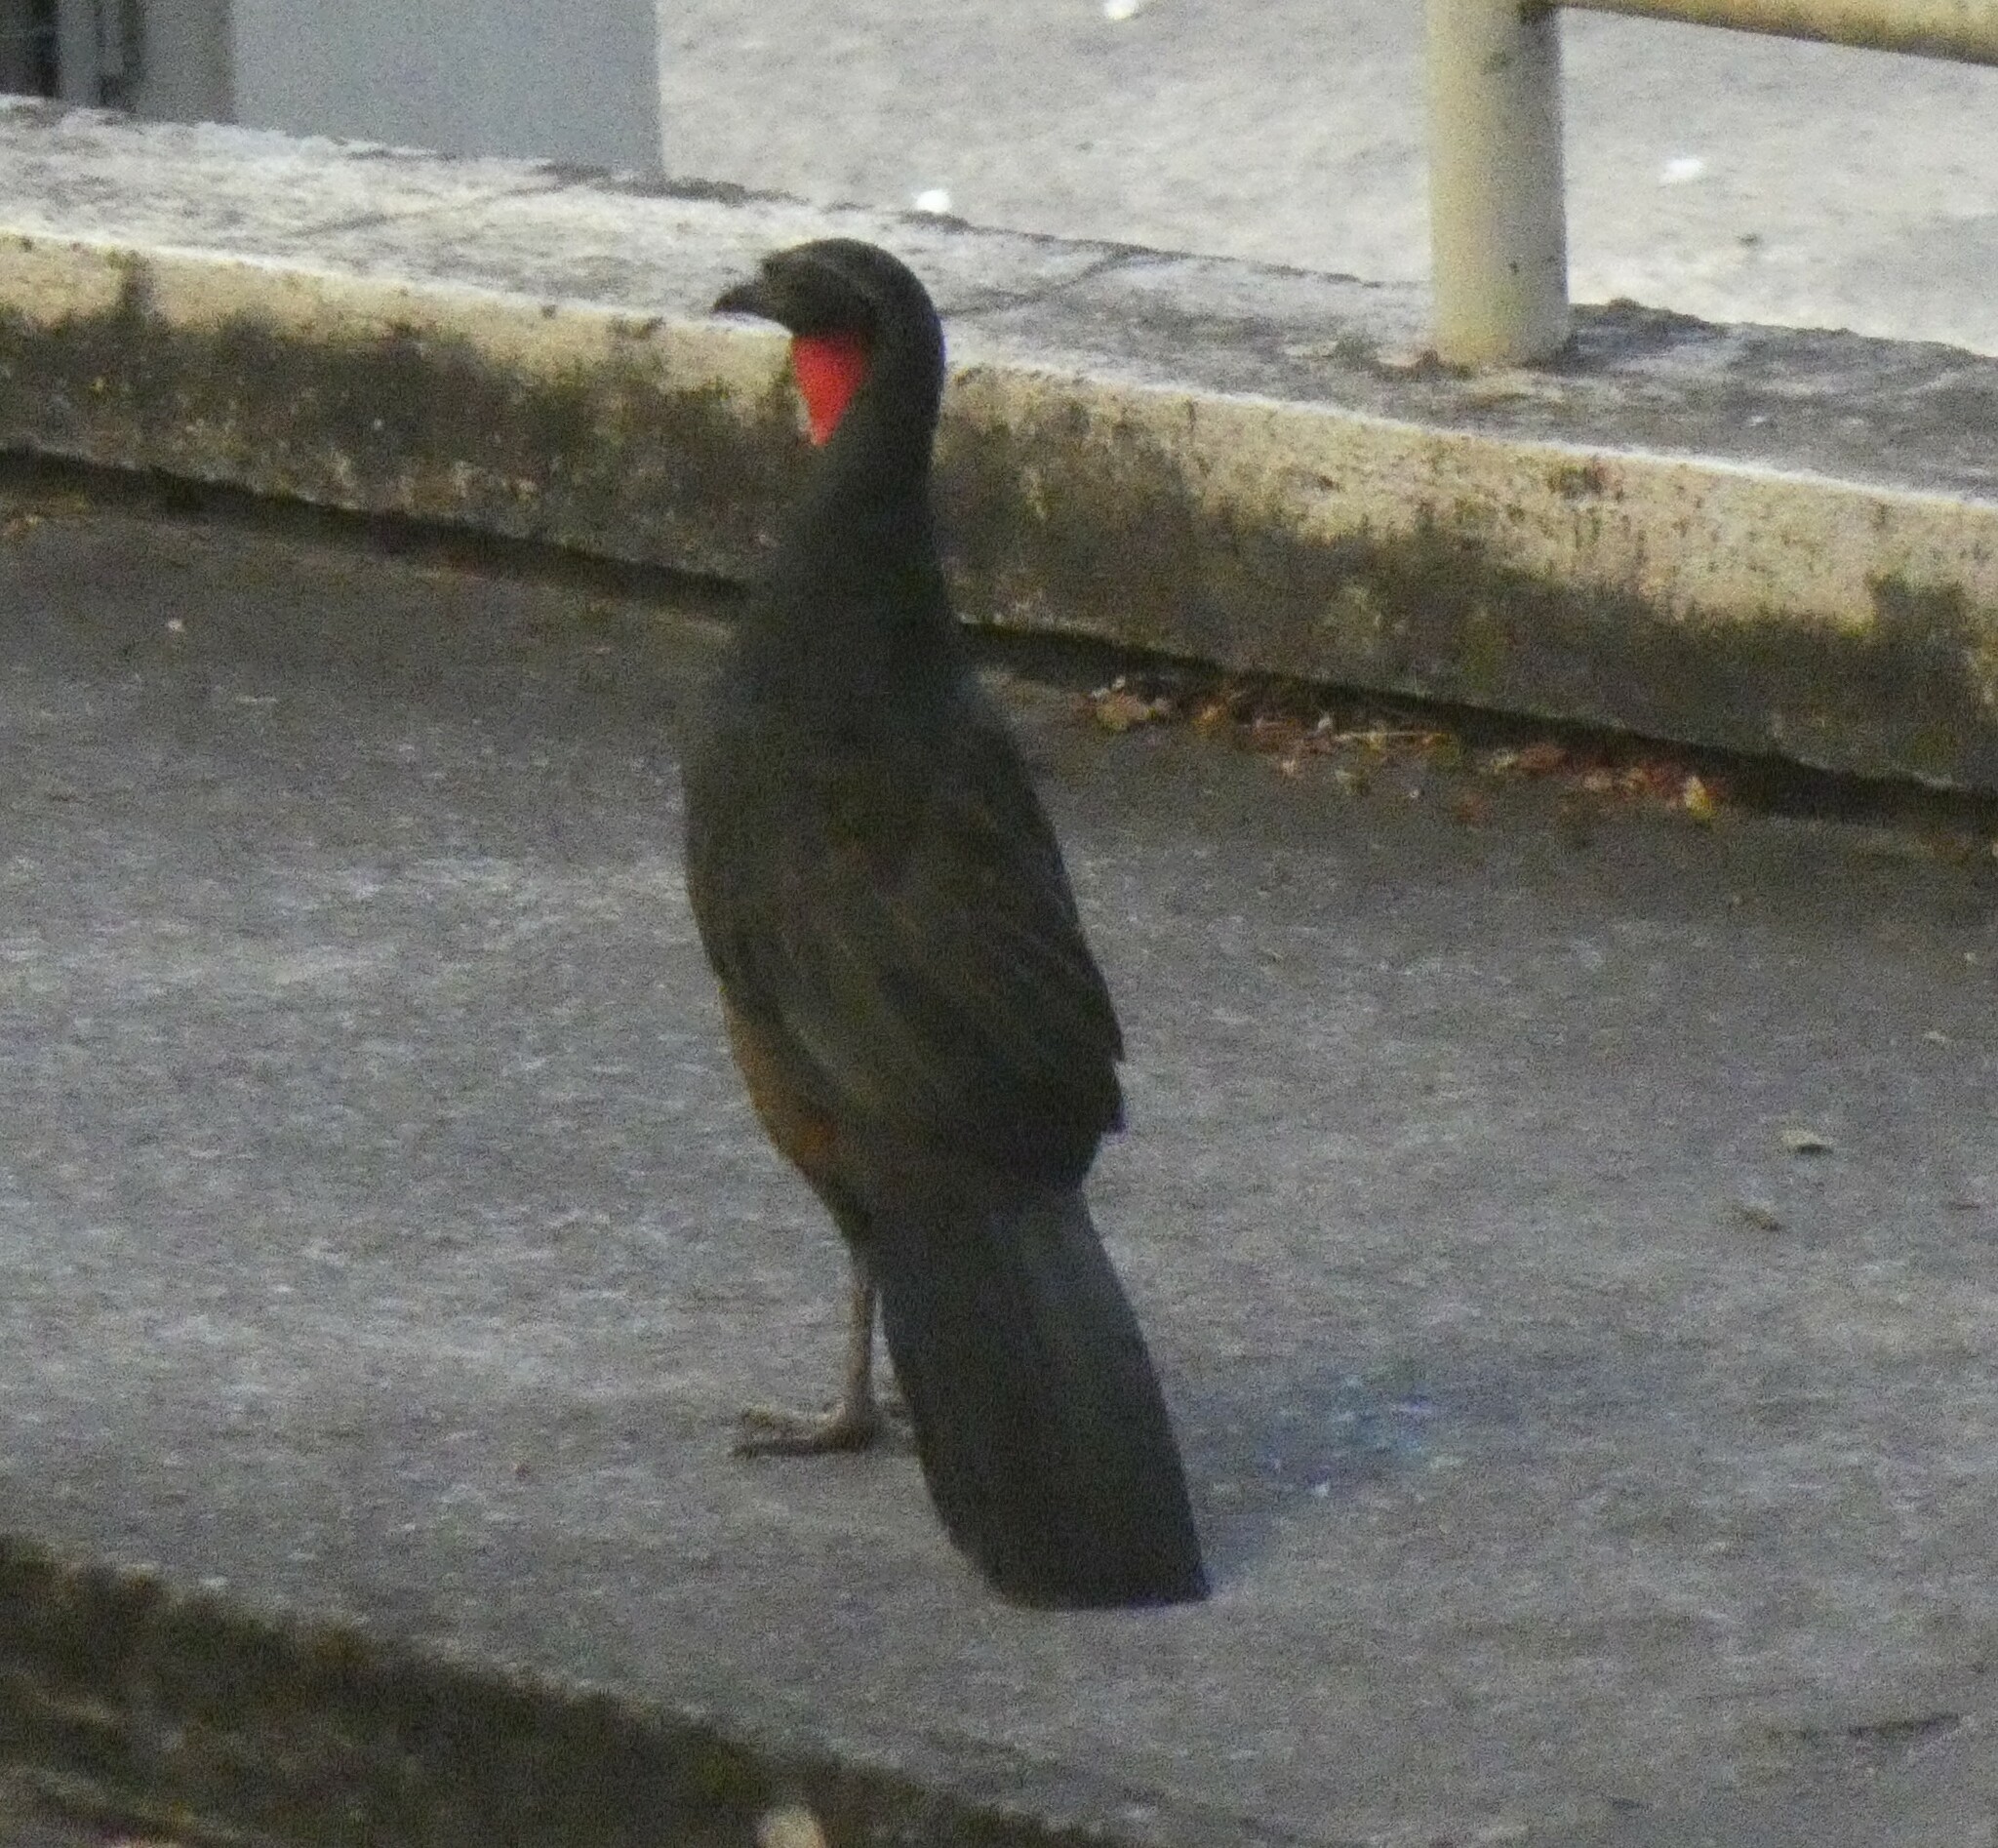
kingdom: Animalia
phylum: Chordata
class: Aves
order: Galliformes
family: Cracidae
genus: Penelope
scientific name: Penelope superciliaris
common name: Rusty-margined guan
